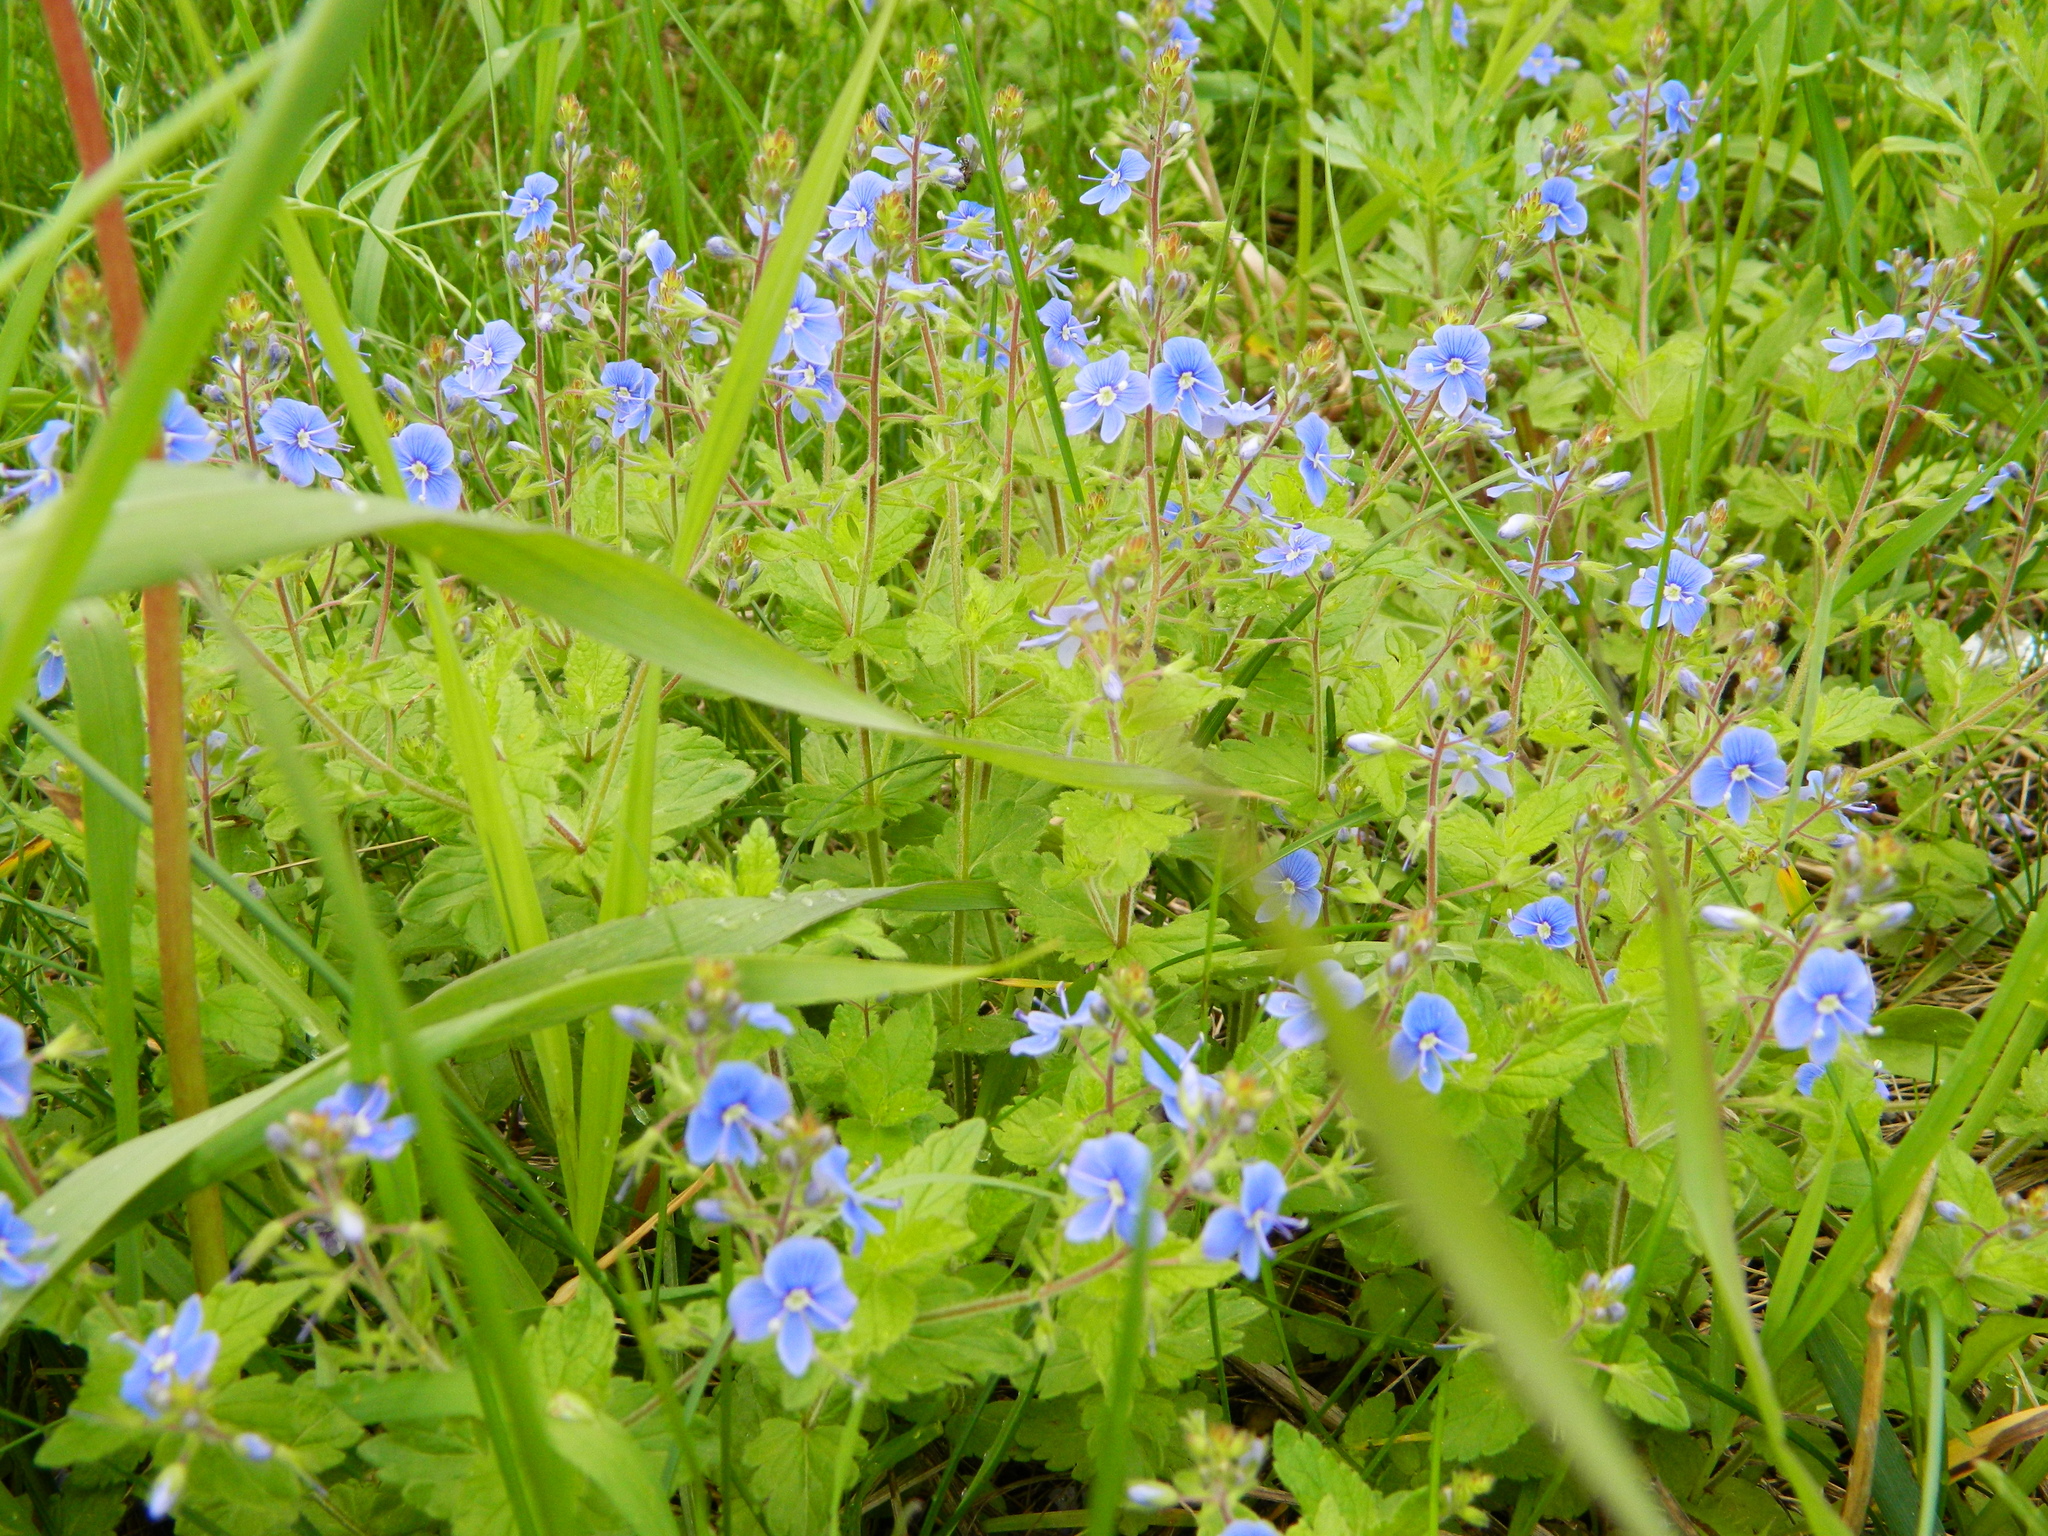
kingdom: Plantae
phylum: Tracheophyta
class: Magnoliopsida
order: Lamiales
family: Plantaginaceae
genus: Veronica
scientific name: Veronica chamaedrys
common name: Germander speedwell
